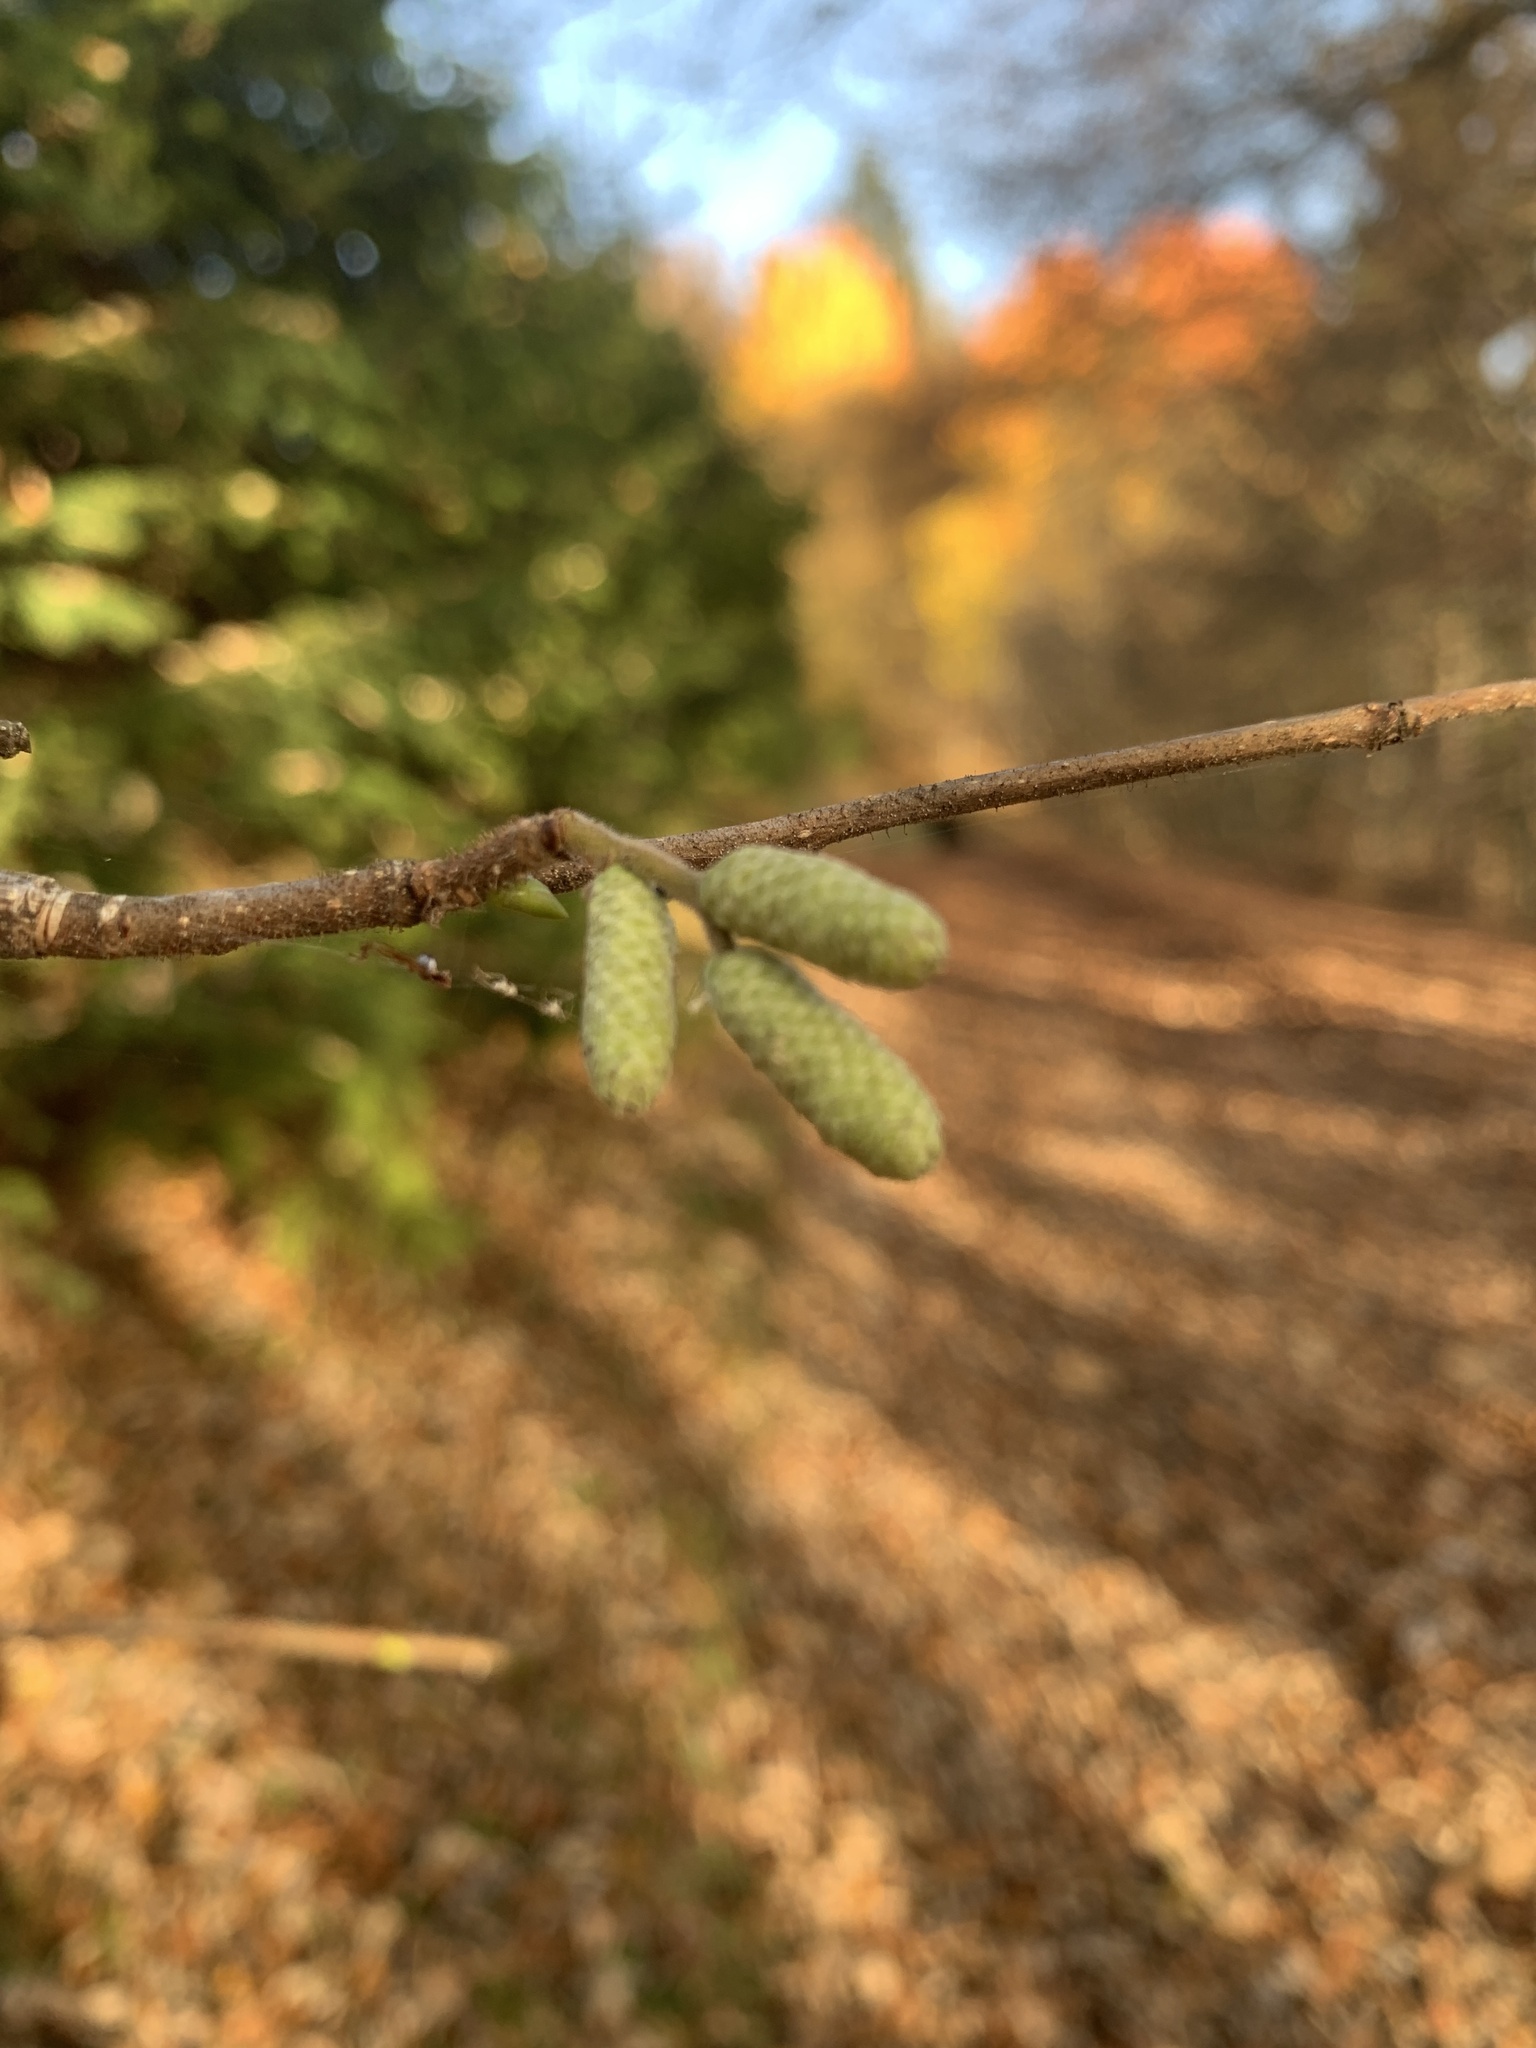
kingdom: Plantae
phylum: Tracheophyta
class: Magnoliopsida
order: Fagales
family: Betulaceae
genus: Corylus
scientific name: Corylus avellana
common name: European hazel
